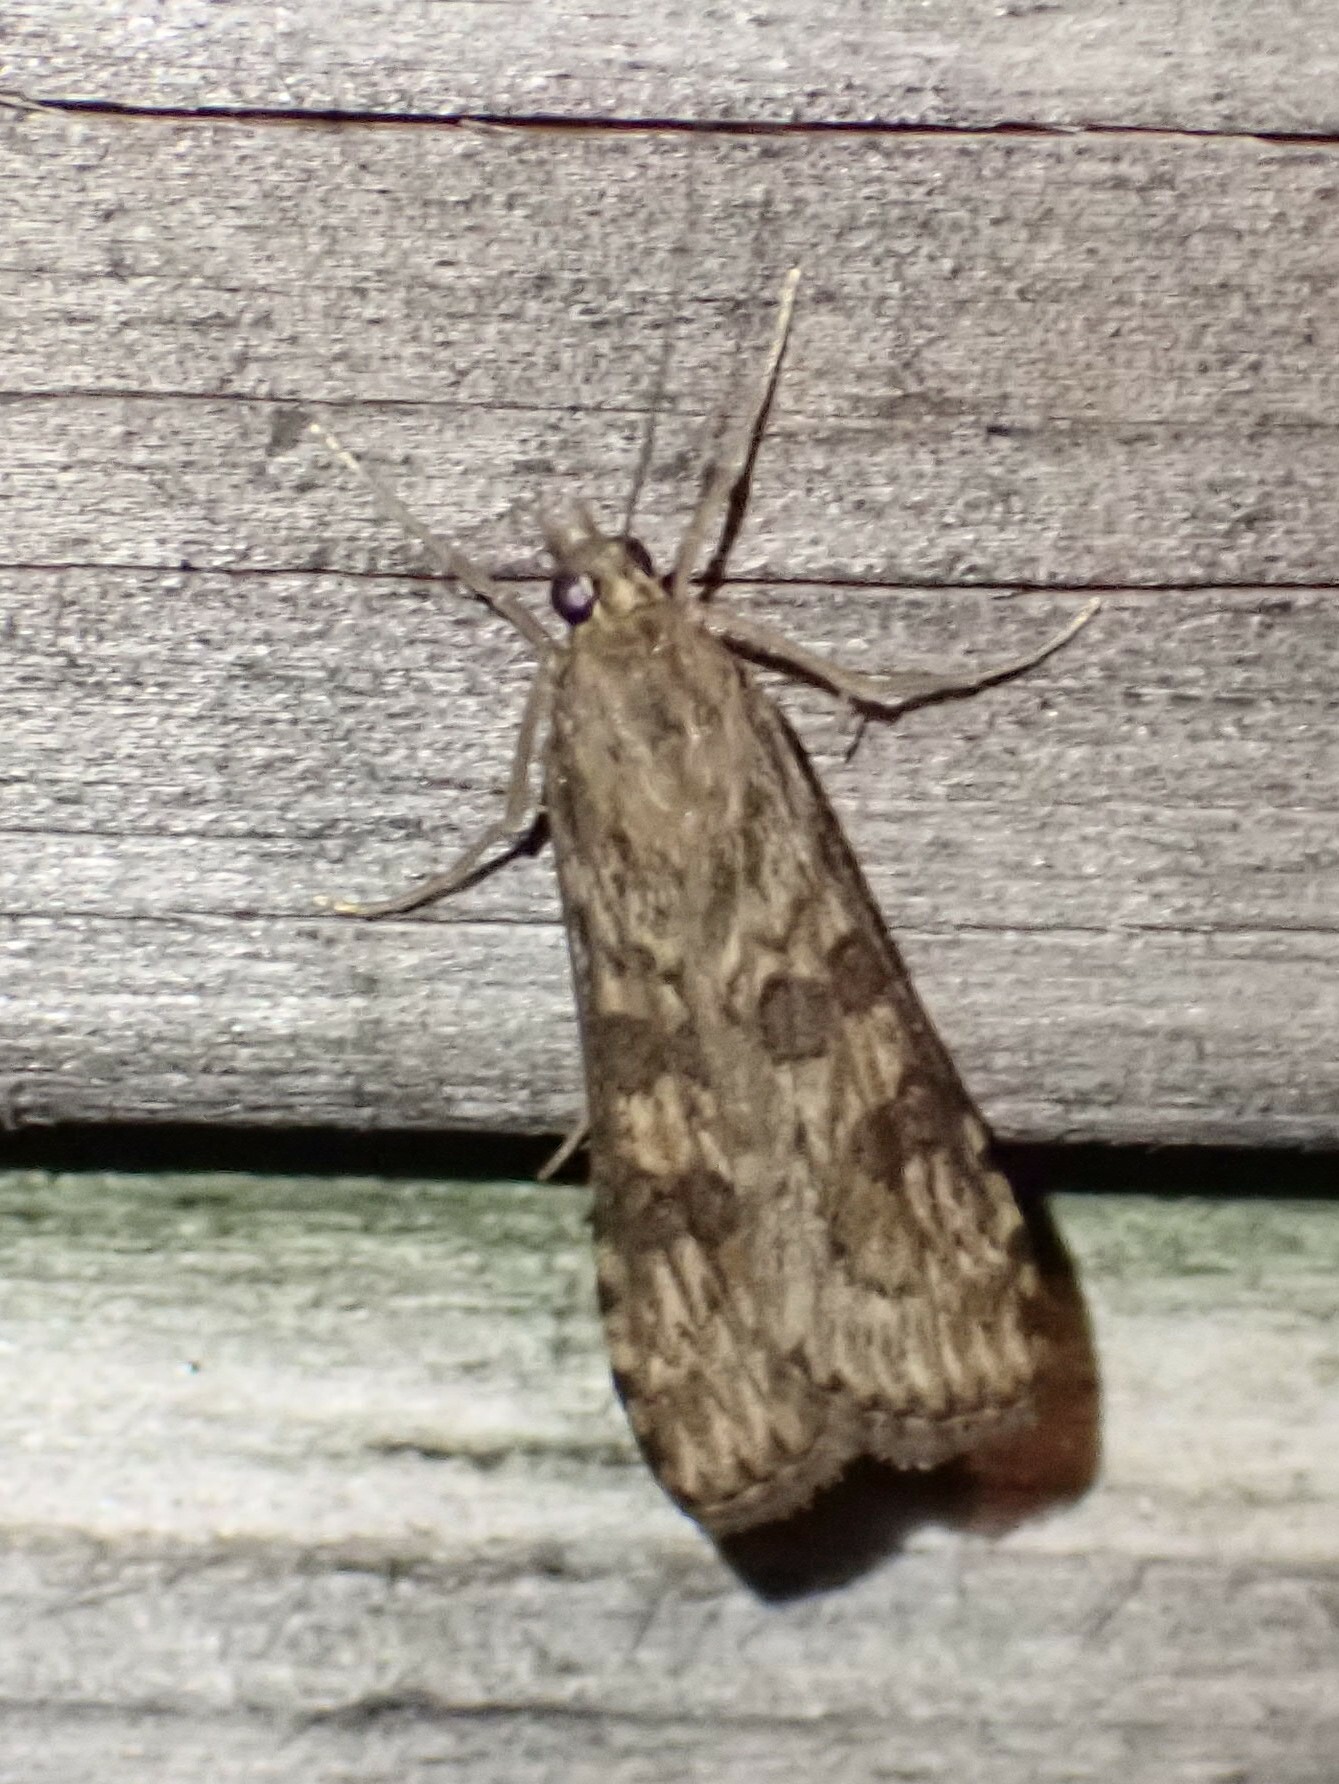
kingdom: Animalia
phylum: Arthropoda
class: Insecta
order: Lepidoptera
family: Crambidae
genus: Nomophila
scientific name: Nomophila nearctica
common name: American rush veneer
